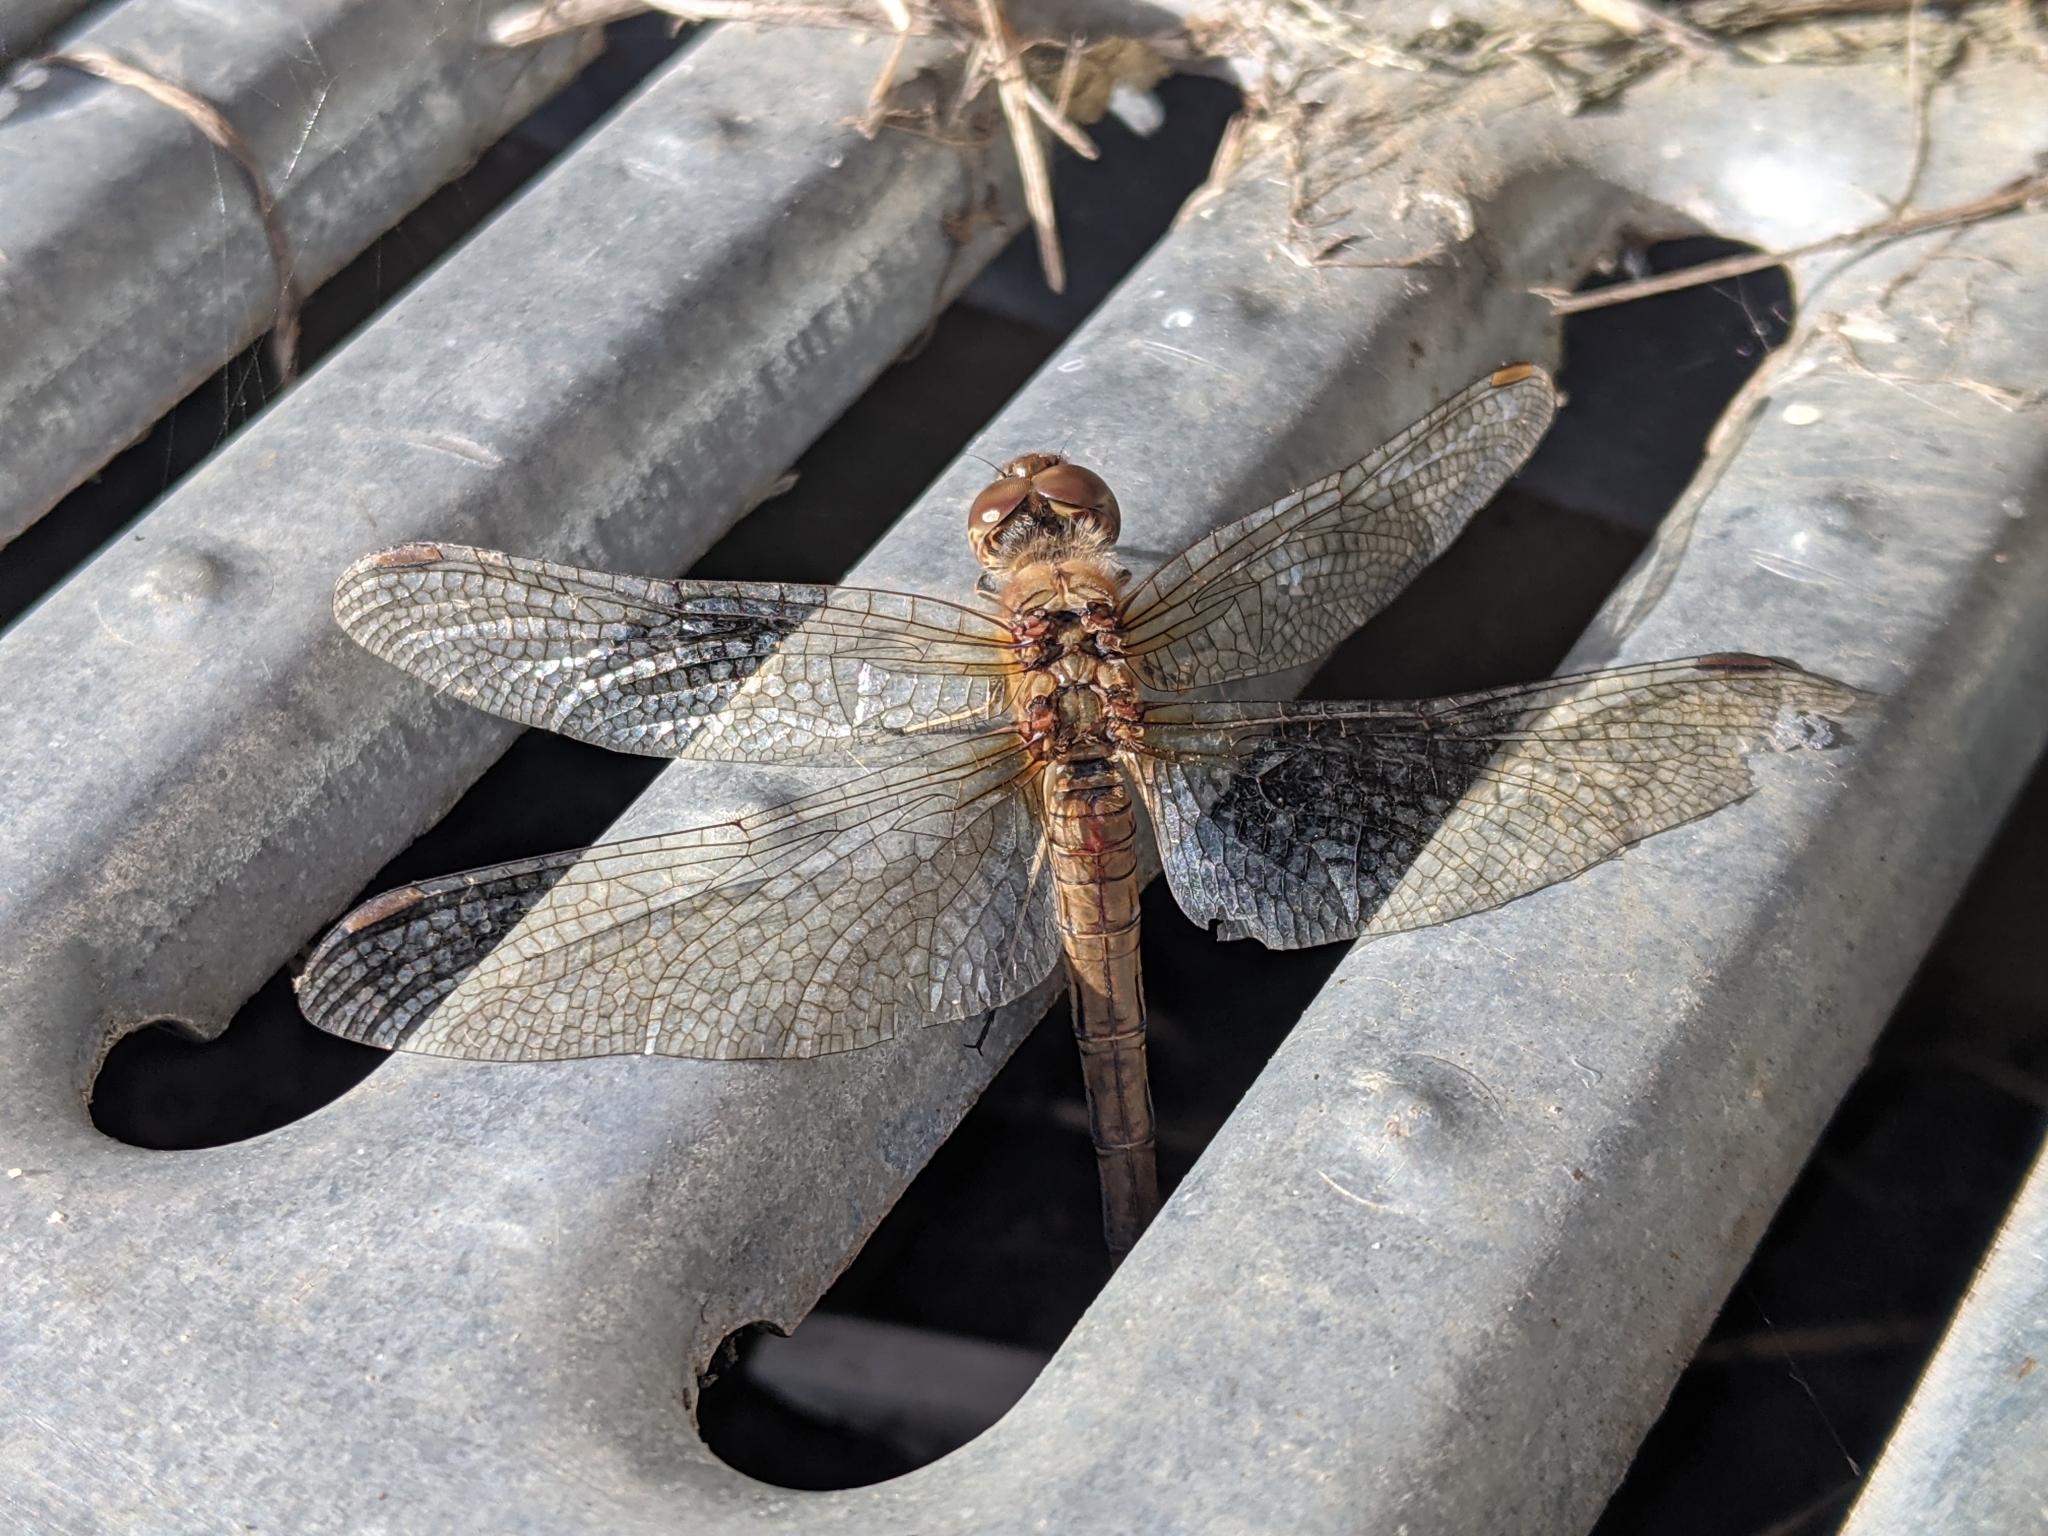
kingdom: Animalia
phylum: Arthropoda
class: Insecta
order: Odonata
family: Libellulidae
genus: Sympetrum
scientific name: Sympetrum striolatum
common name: Common darter
